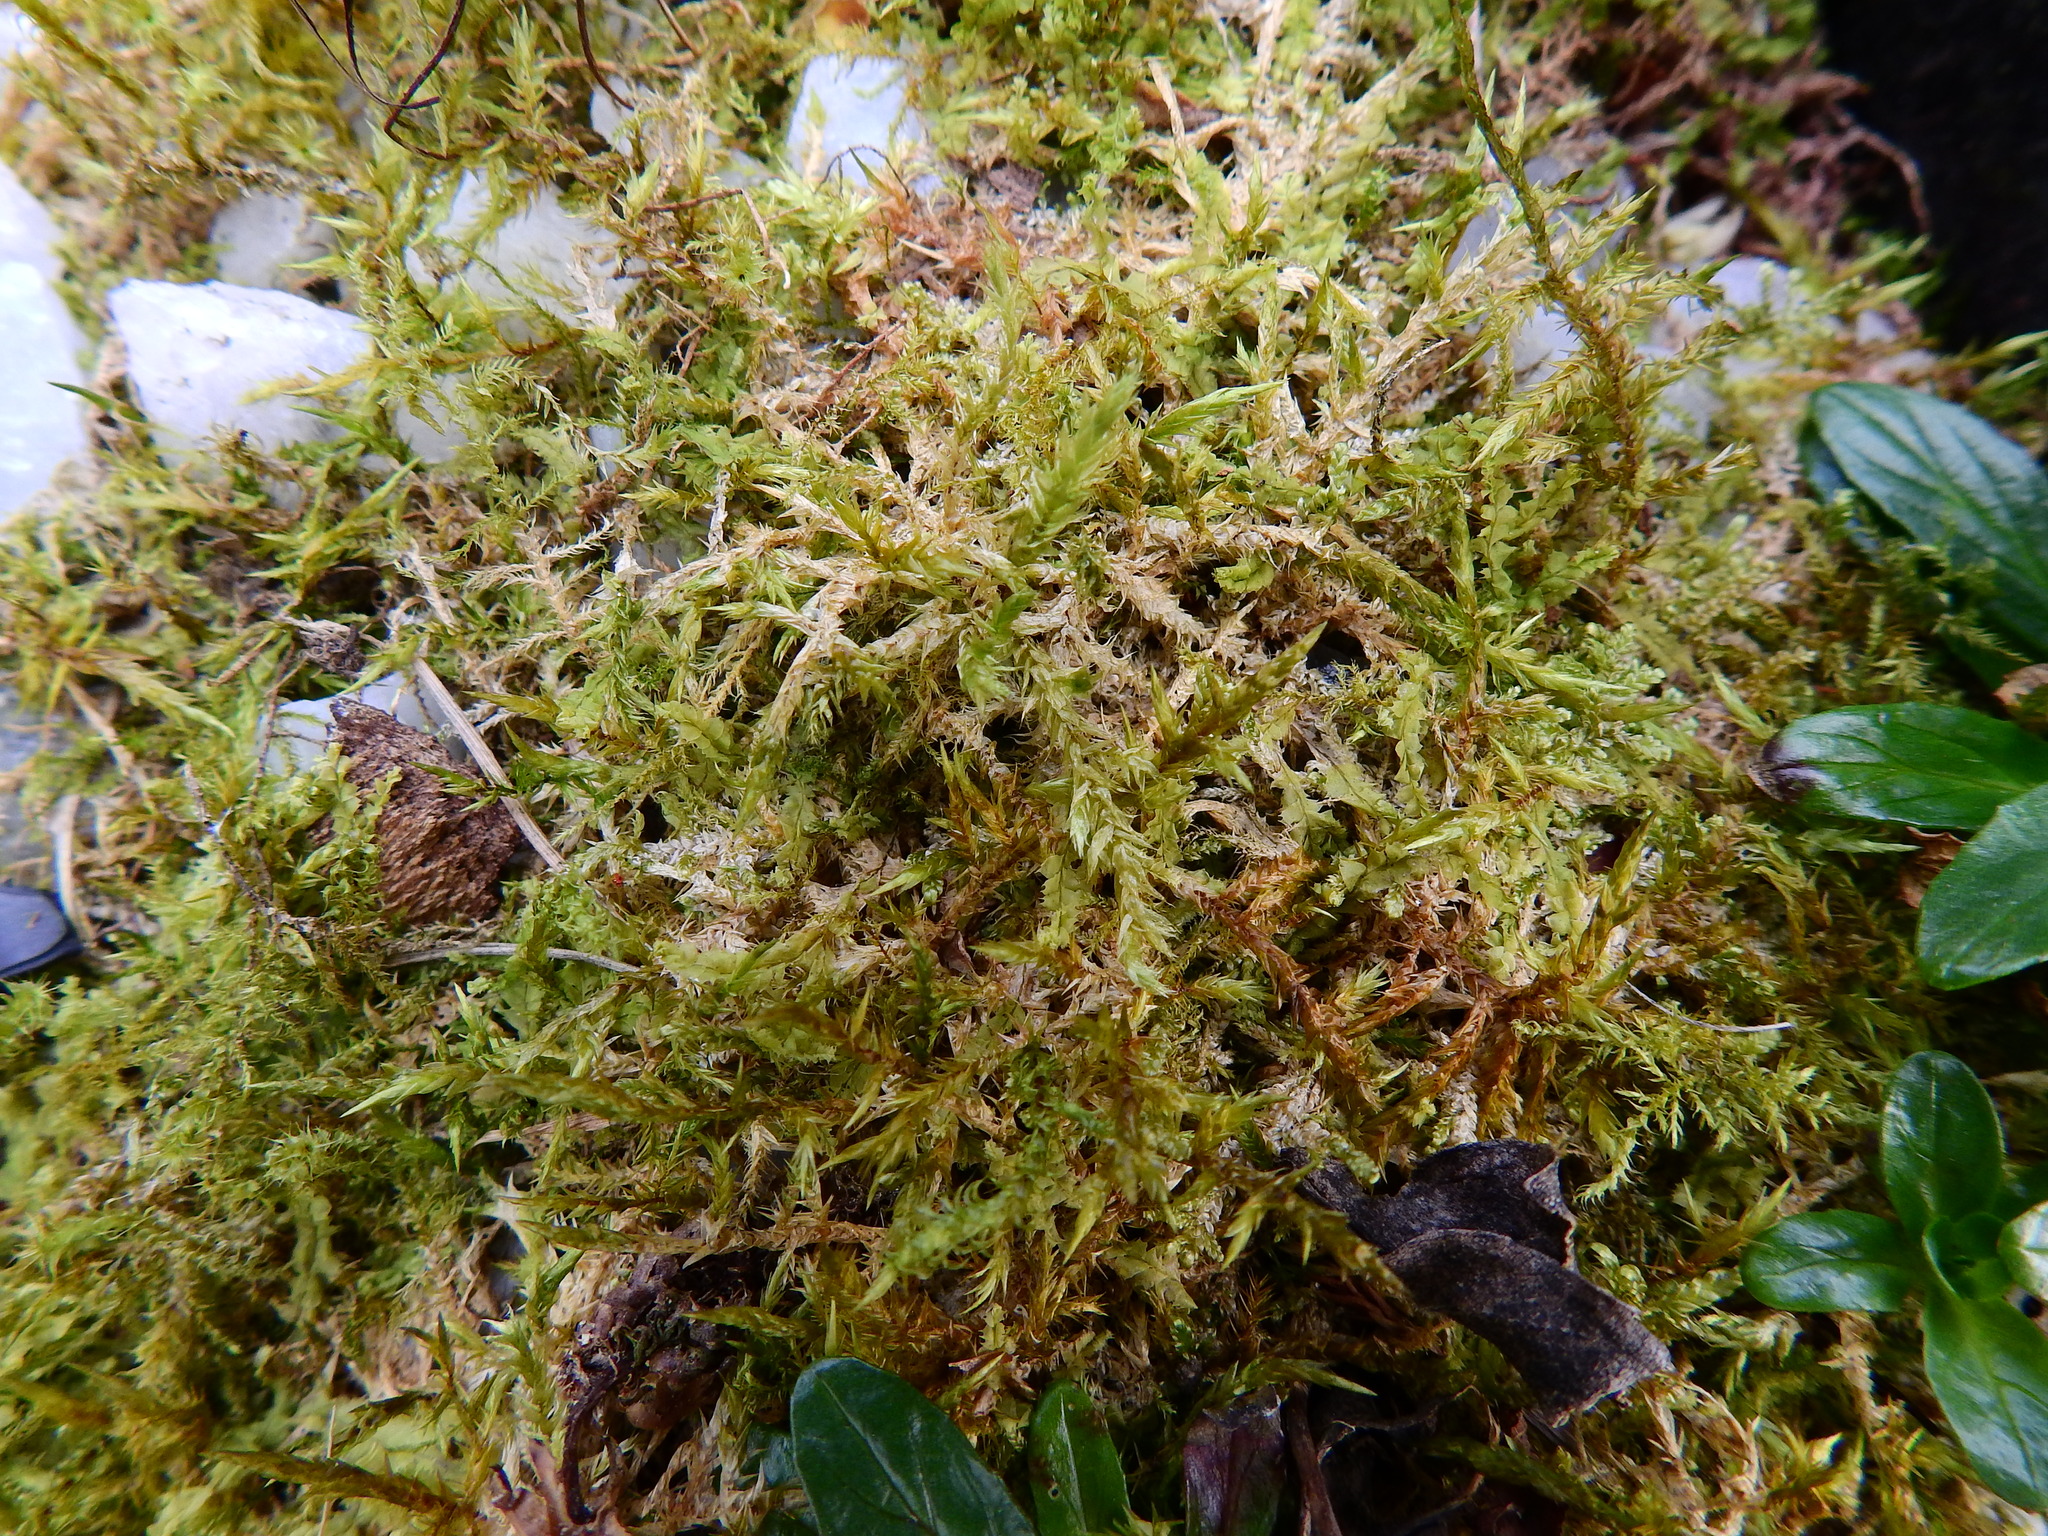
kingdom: Plantae
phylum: Bryophyta
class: Bryopsida
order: Hypnales
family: Pylaisiaceae
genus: Calliergonella
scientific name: Calliergonella cuspidata
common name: Common large wetland moss
